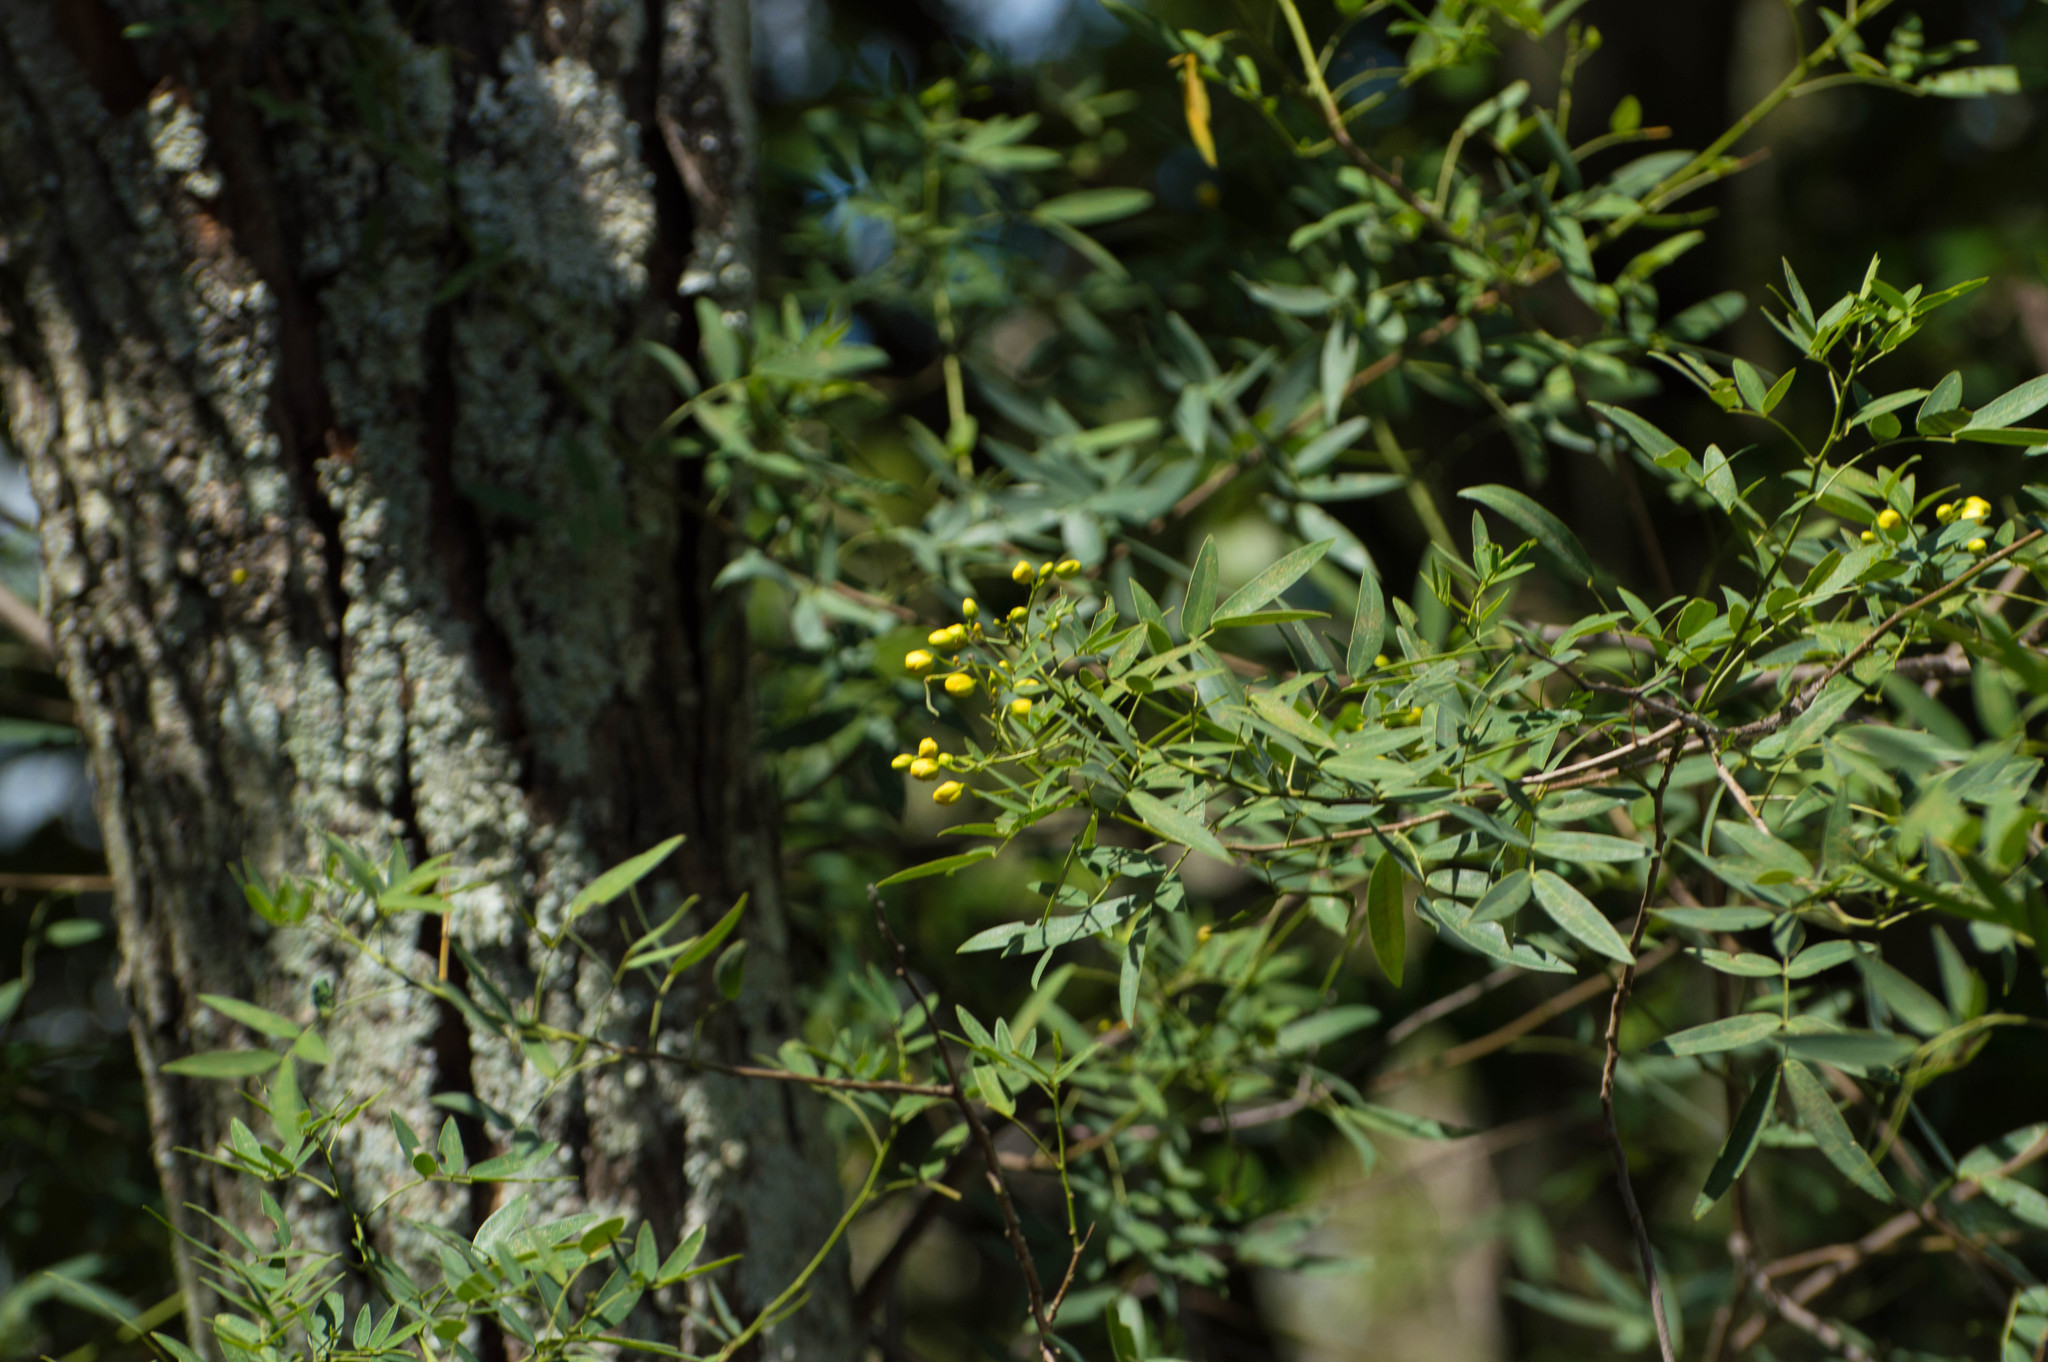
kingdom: Plantae
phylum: Tracheophyta
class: Magnoliopsida
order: Fabales
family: Fabaceae
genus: Senna
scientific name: Senna corymbosa
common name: Argentine senna
